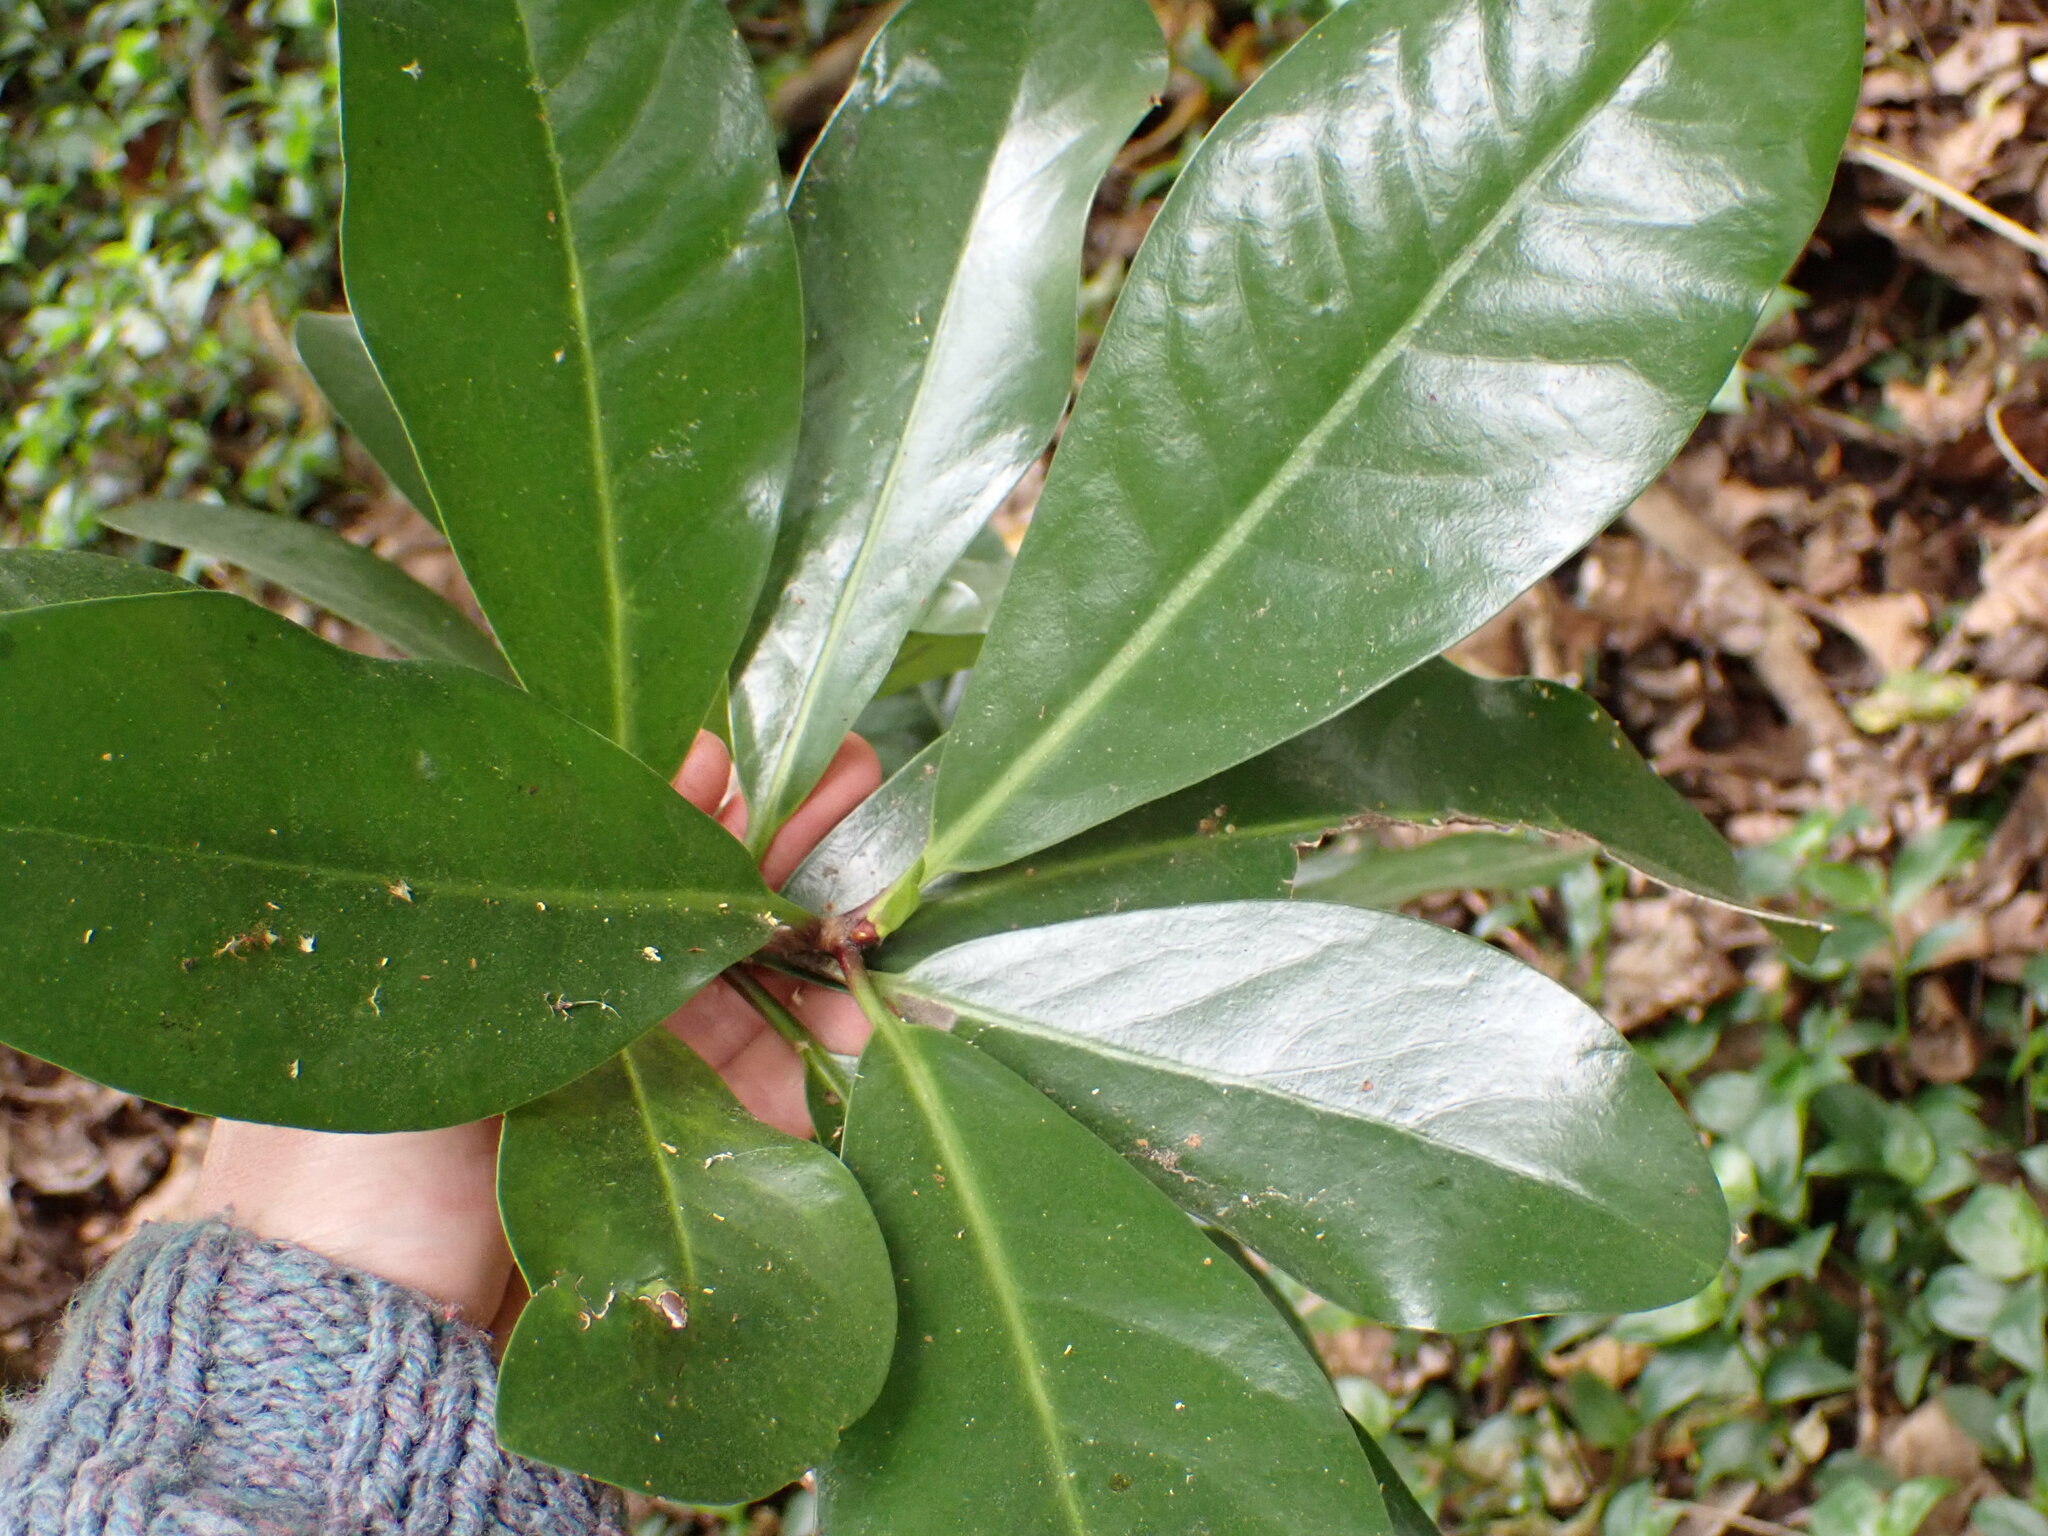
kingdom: Plantae
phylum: Tracheophyta
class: Magnoliopsida
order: Cucurbitales
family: Corynocarpaceae
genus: Corynocarpus
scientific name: Corynocarpus laevigatus
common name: New zealand laurel
